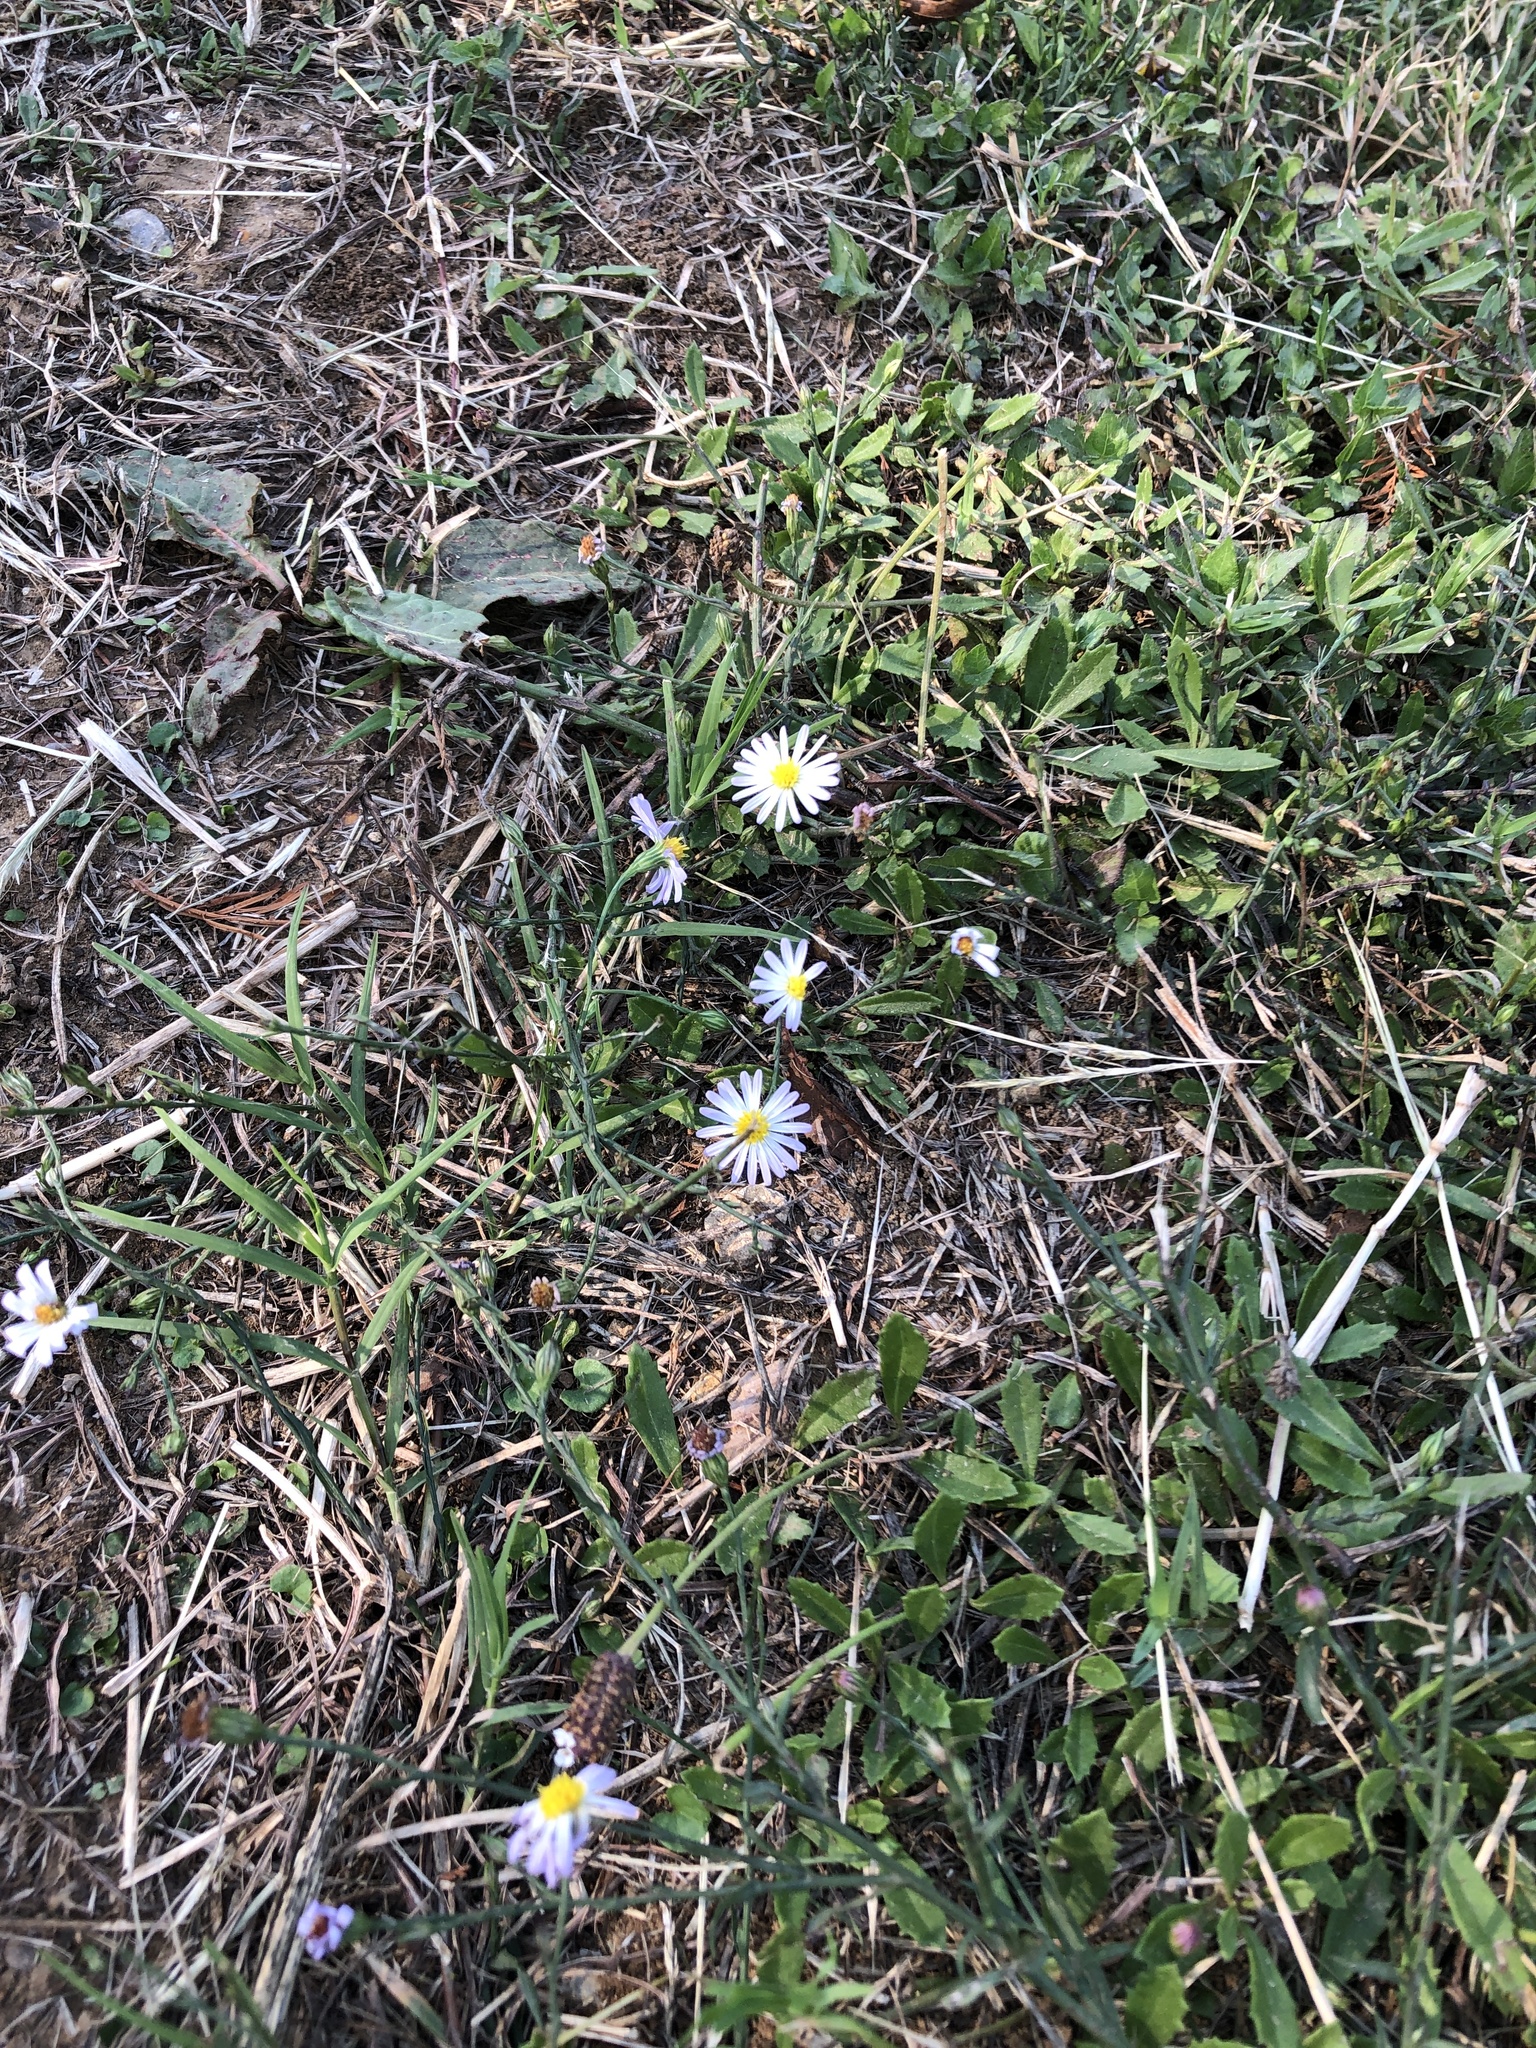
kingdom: Plantae
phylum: Tracheophyta
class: Magnoliopsida
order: Asterales
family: Asteraceae
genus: Symphyotrichum
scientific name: Symphyotrichum divaricatum
